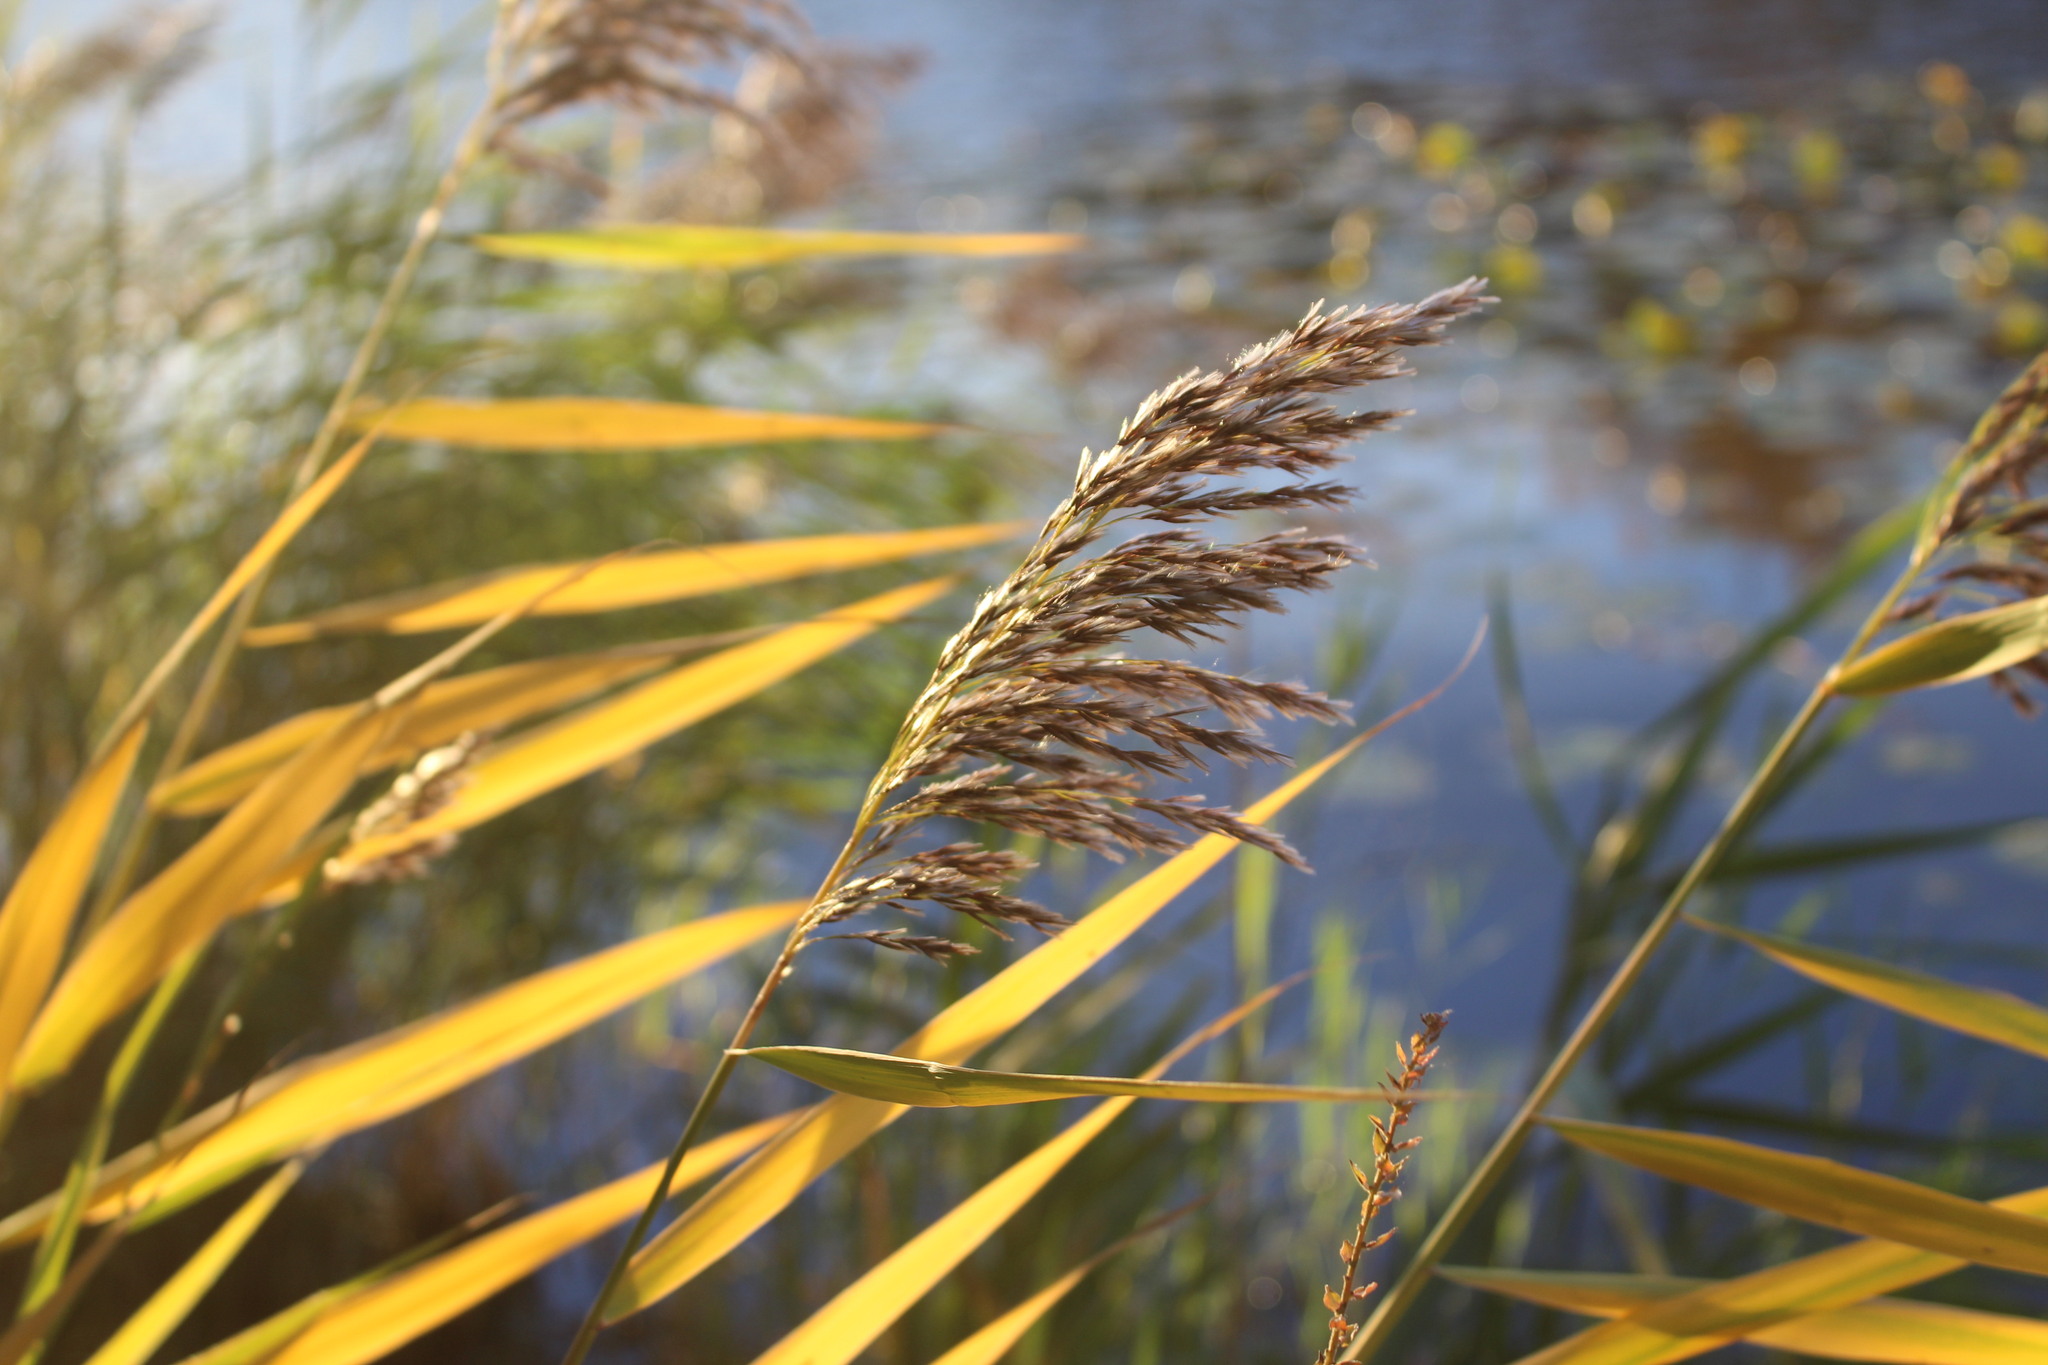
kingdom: Plantae
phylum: Tracheophyta
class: Liliopsida
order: Poales
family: Poaceae
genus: Phragmites
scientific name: Phragmites australis
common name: Common reed
